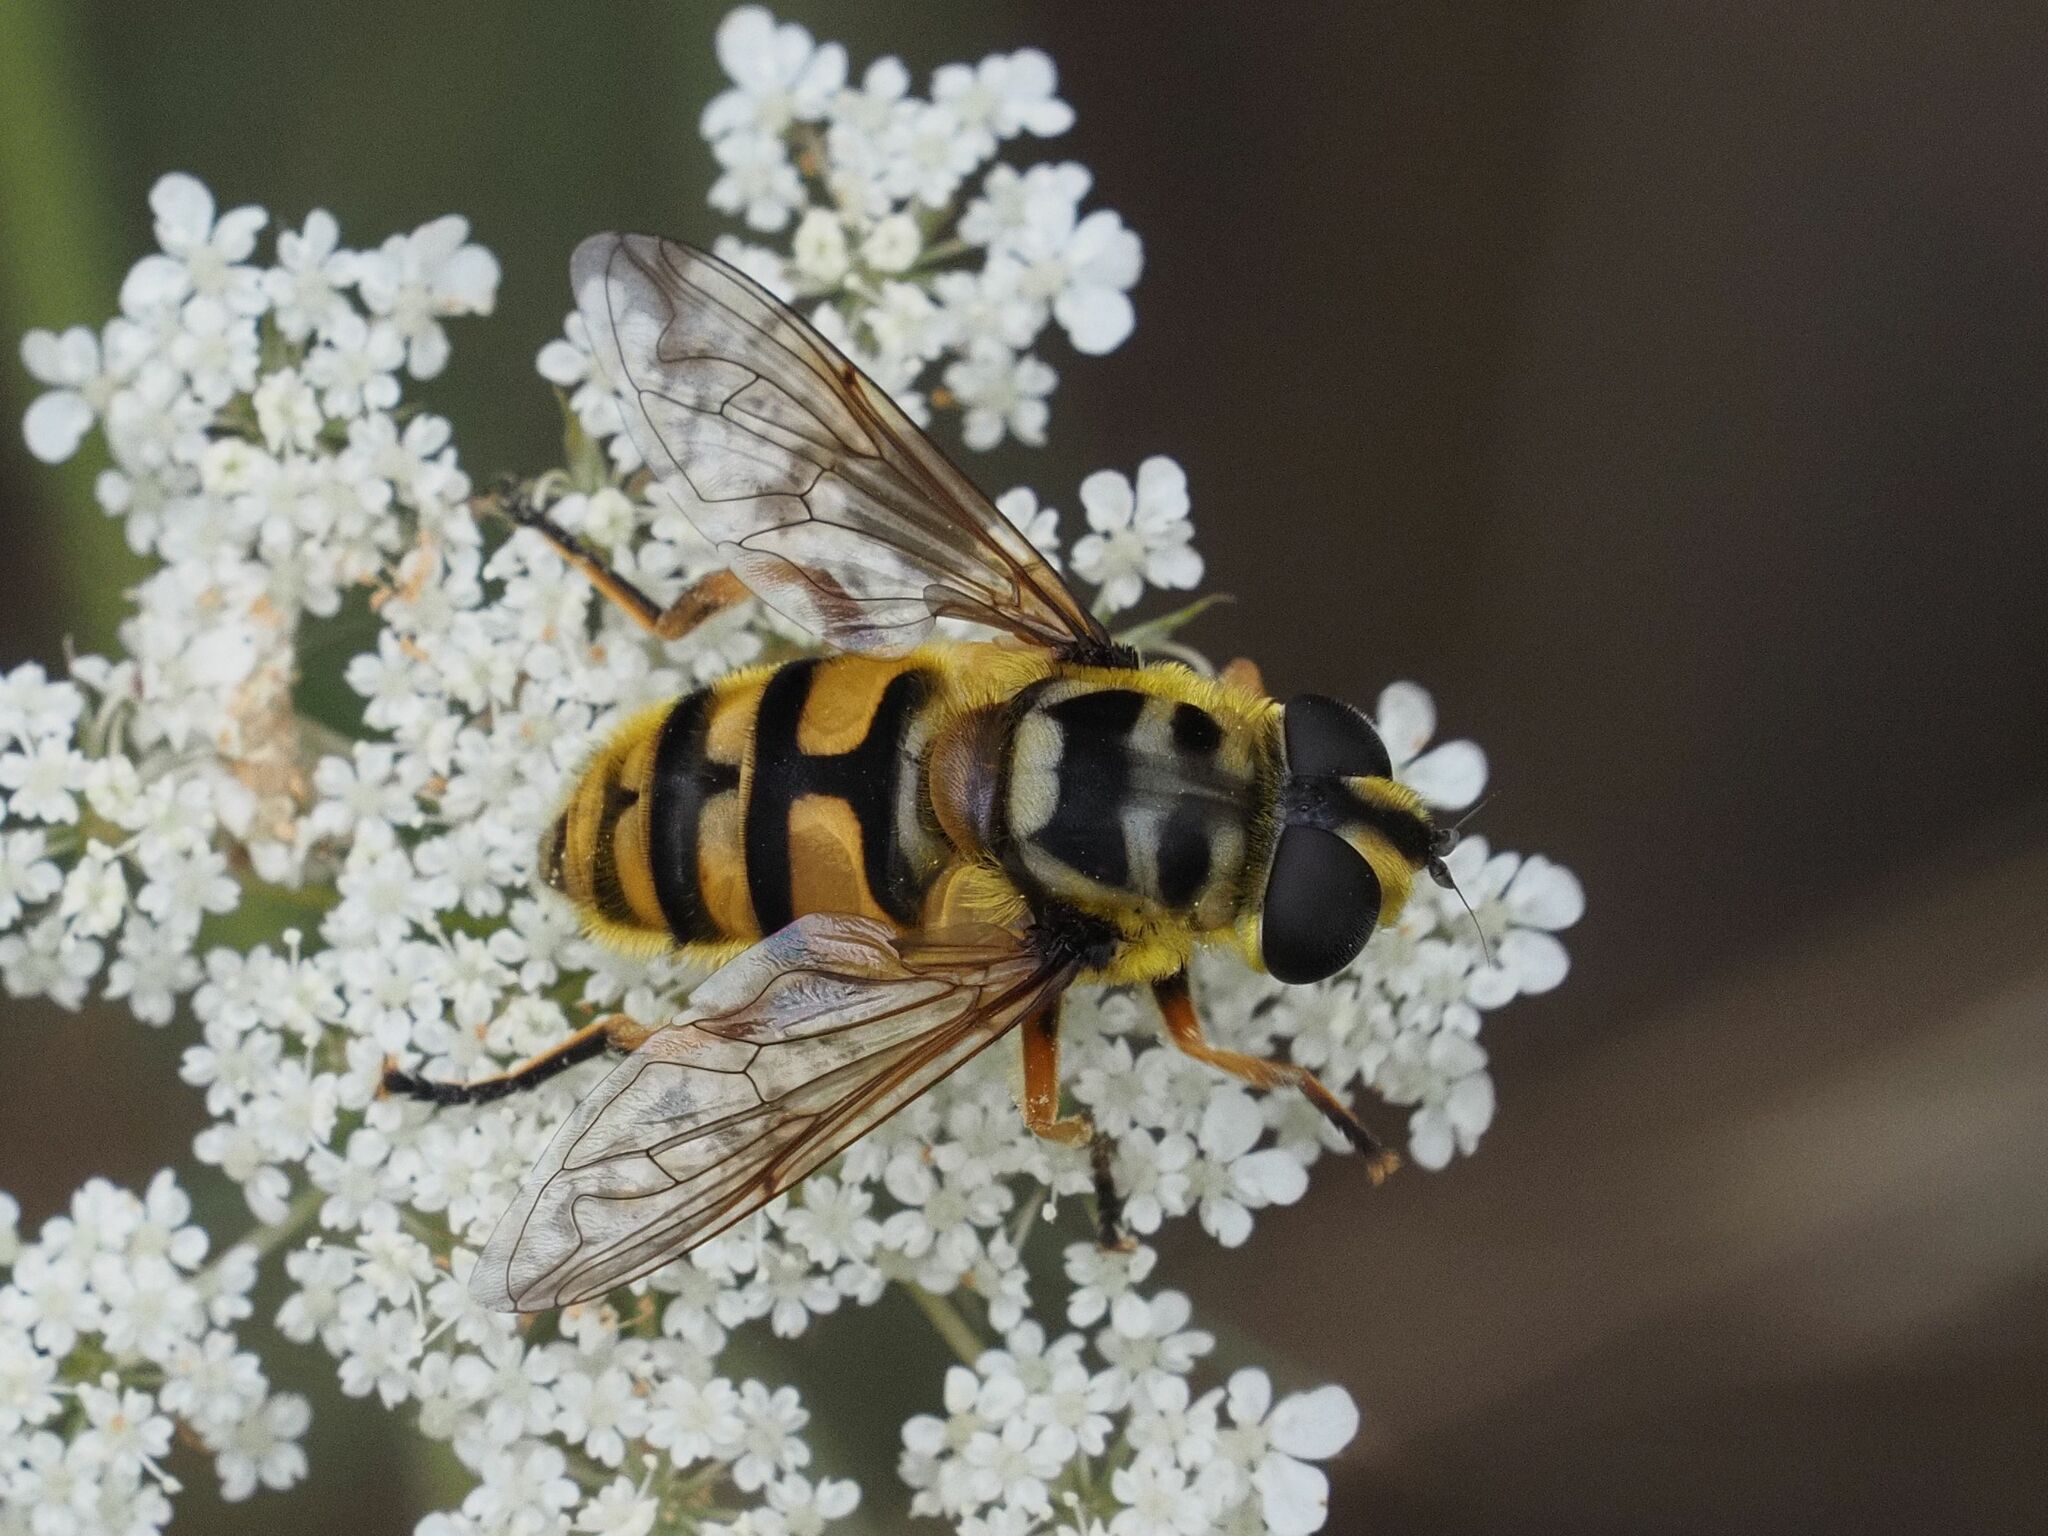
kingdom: Animalia
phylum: Arthropoda
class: Insecta
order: Diptera
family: Syrphidae
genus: Myathropa
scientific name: Myathropa florea
